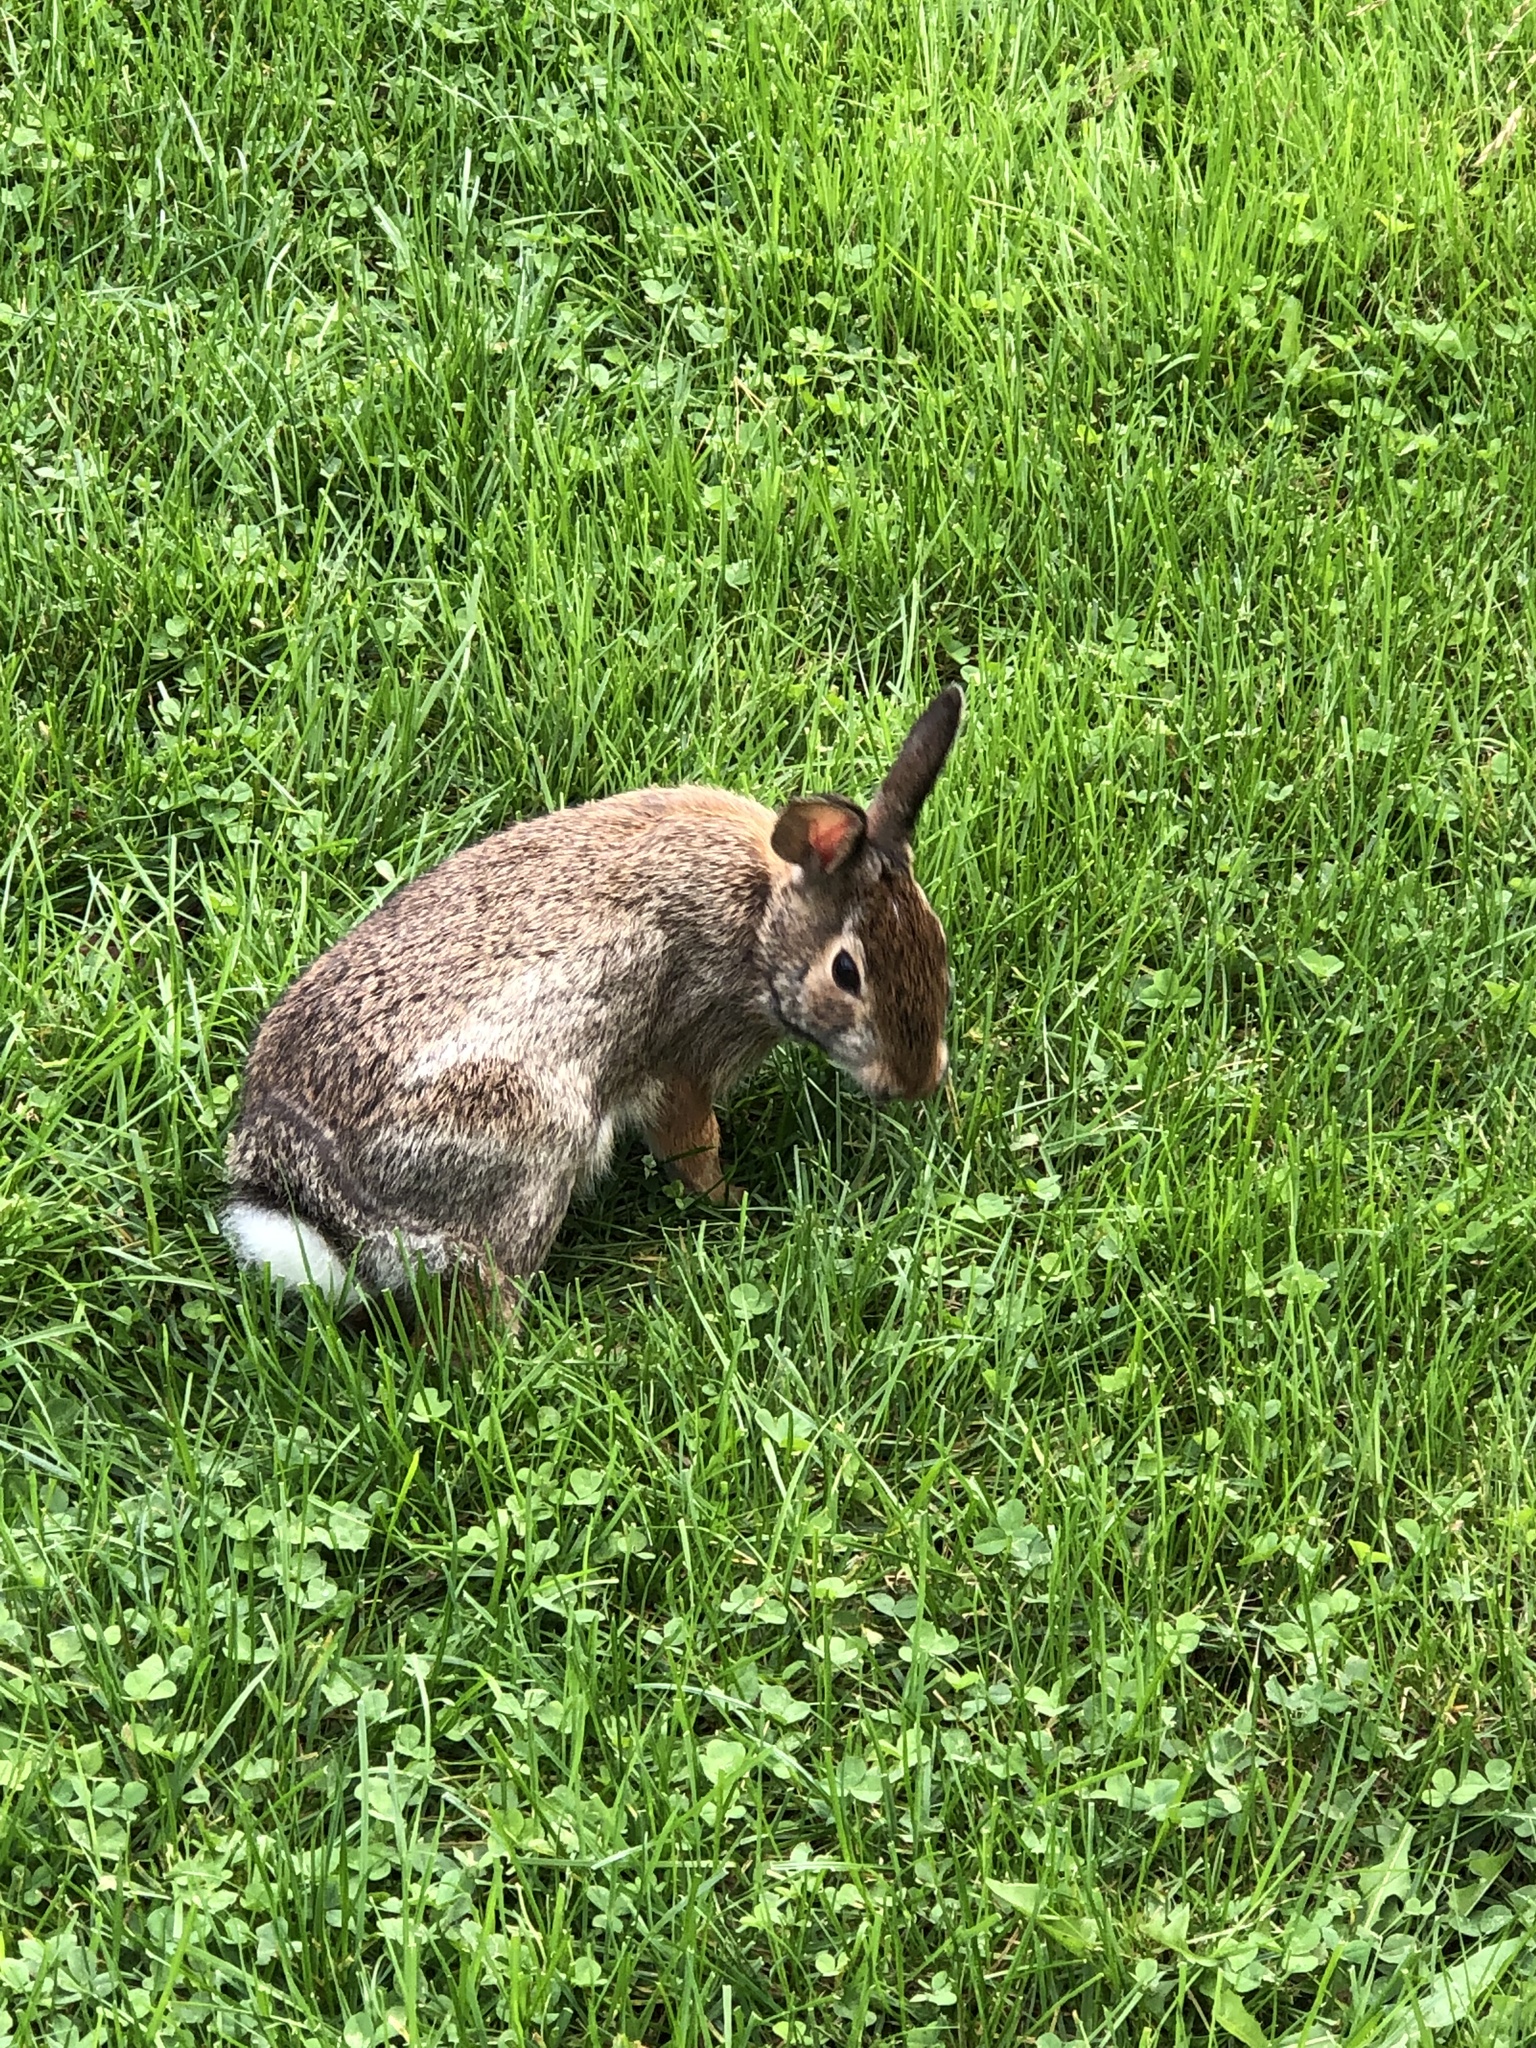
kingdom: Animalia
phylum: Chordata
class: Mammalia
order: Lagomorpha
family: Leporidae
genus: Sylvilagus
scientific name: Sylvilagus floridanus
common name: Eastern cottontail
